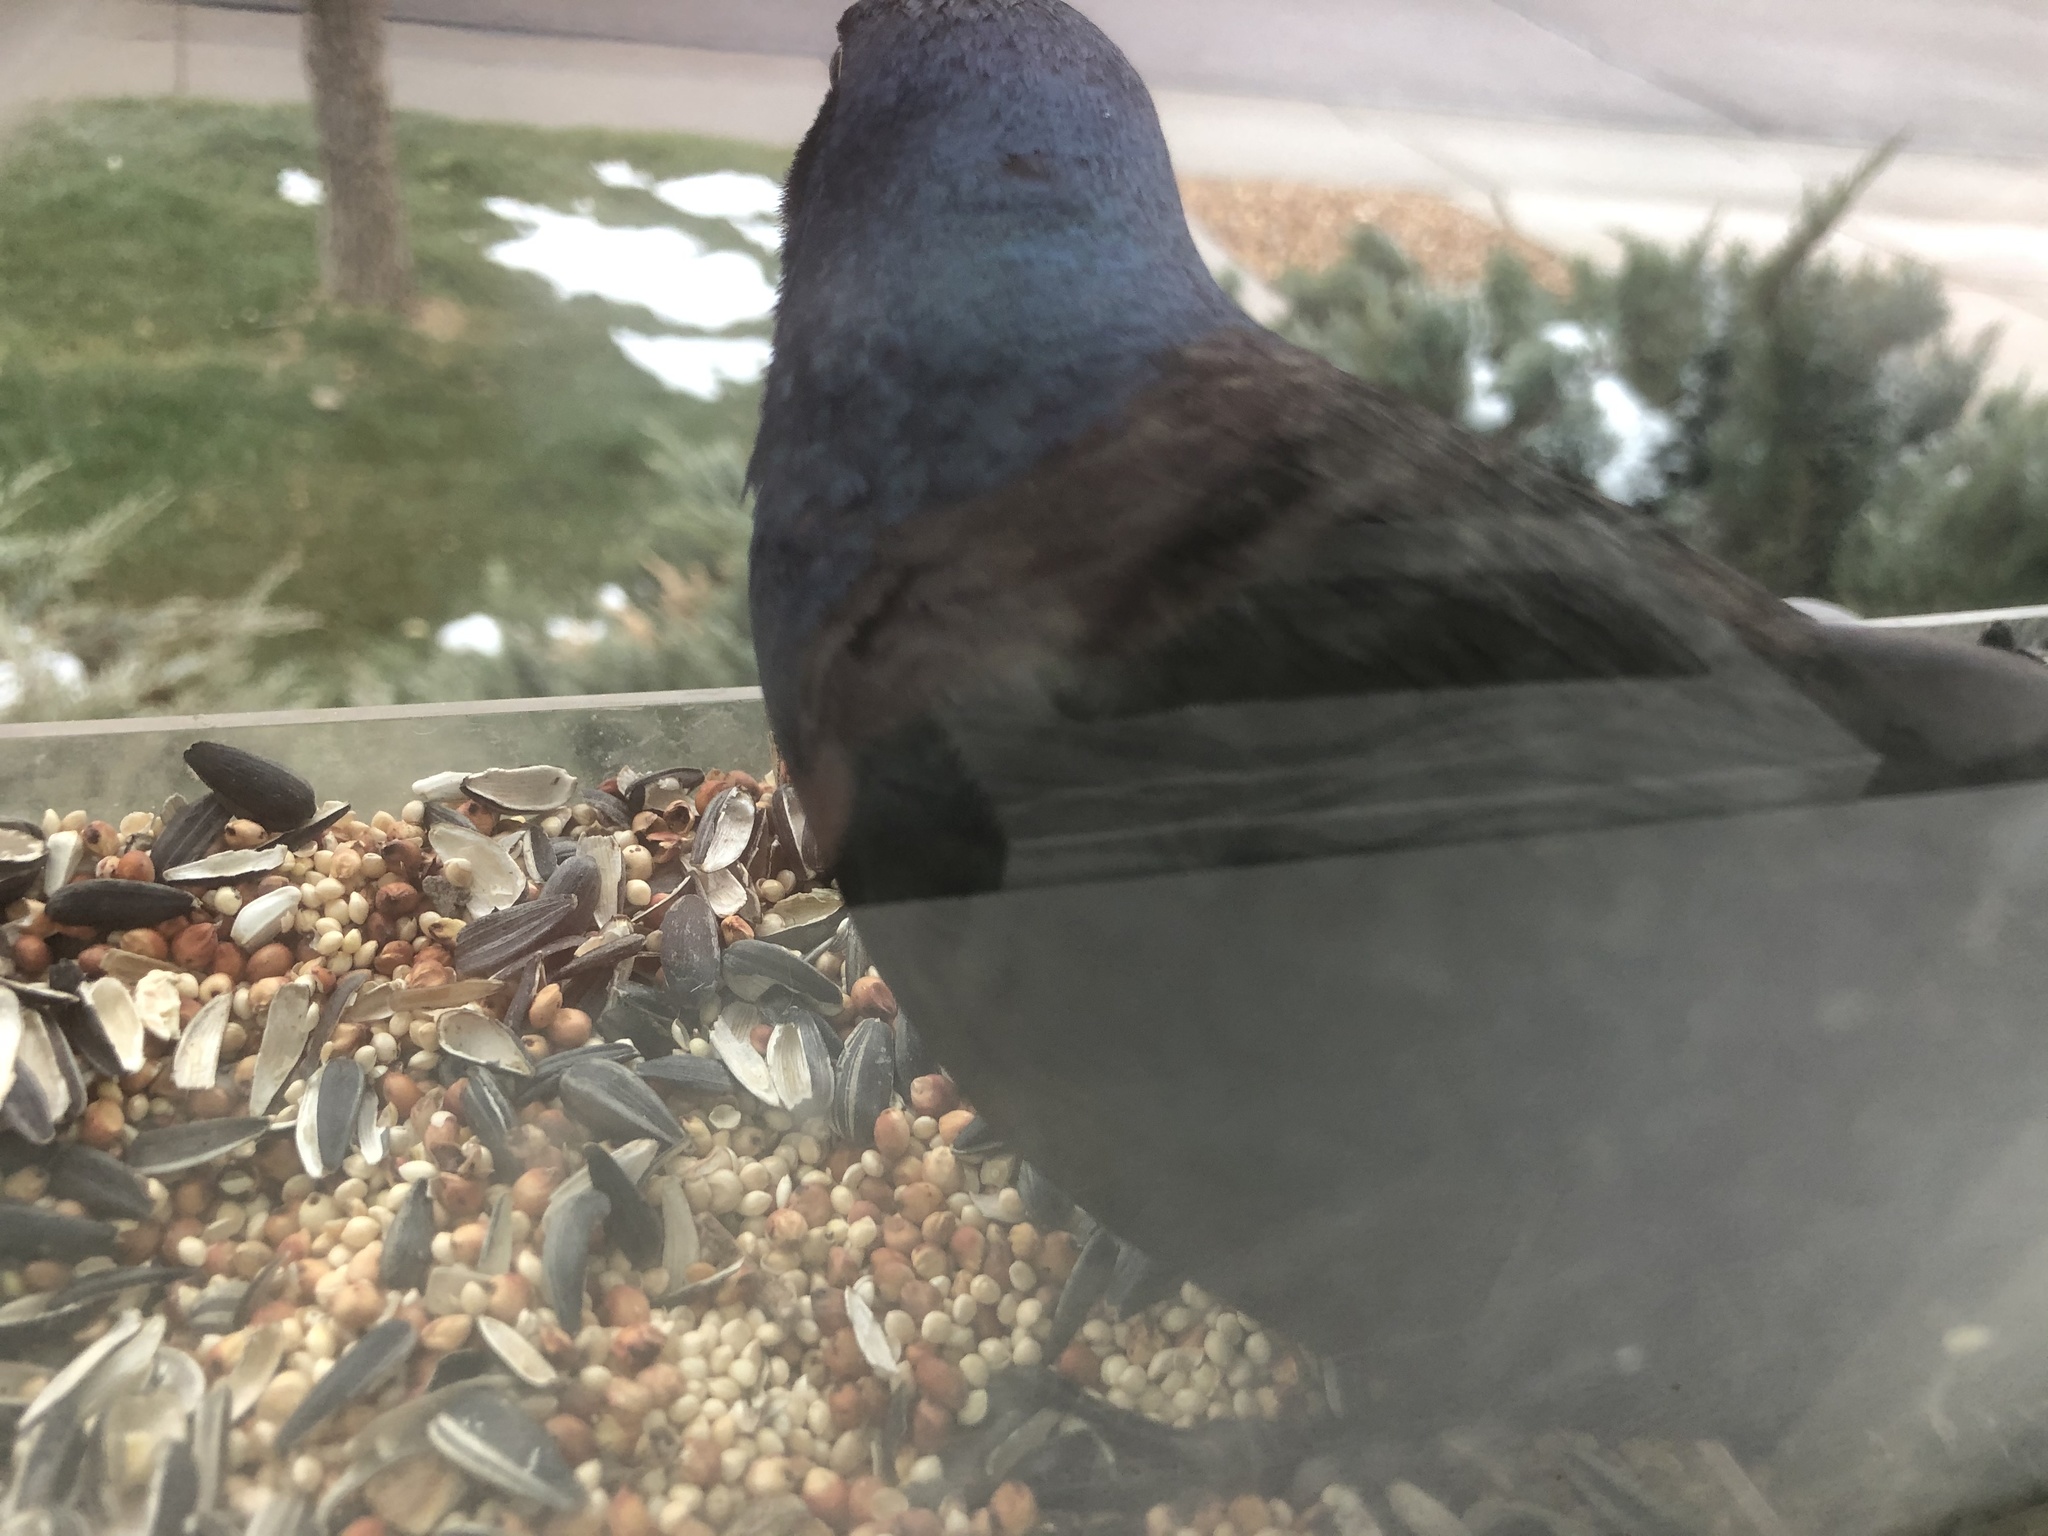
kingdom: Animalia
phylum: Chordata
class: Aves
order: Passeriformes
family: Icteridae
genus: Quiscalus
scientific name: Quiscalus quiscula
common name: Common grackle
